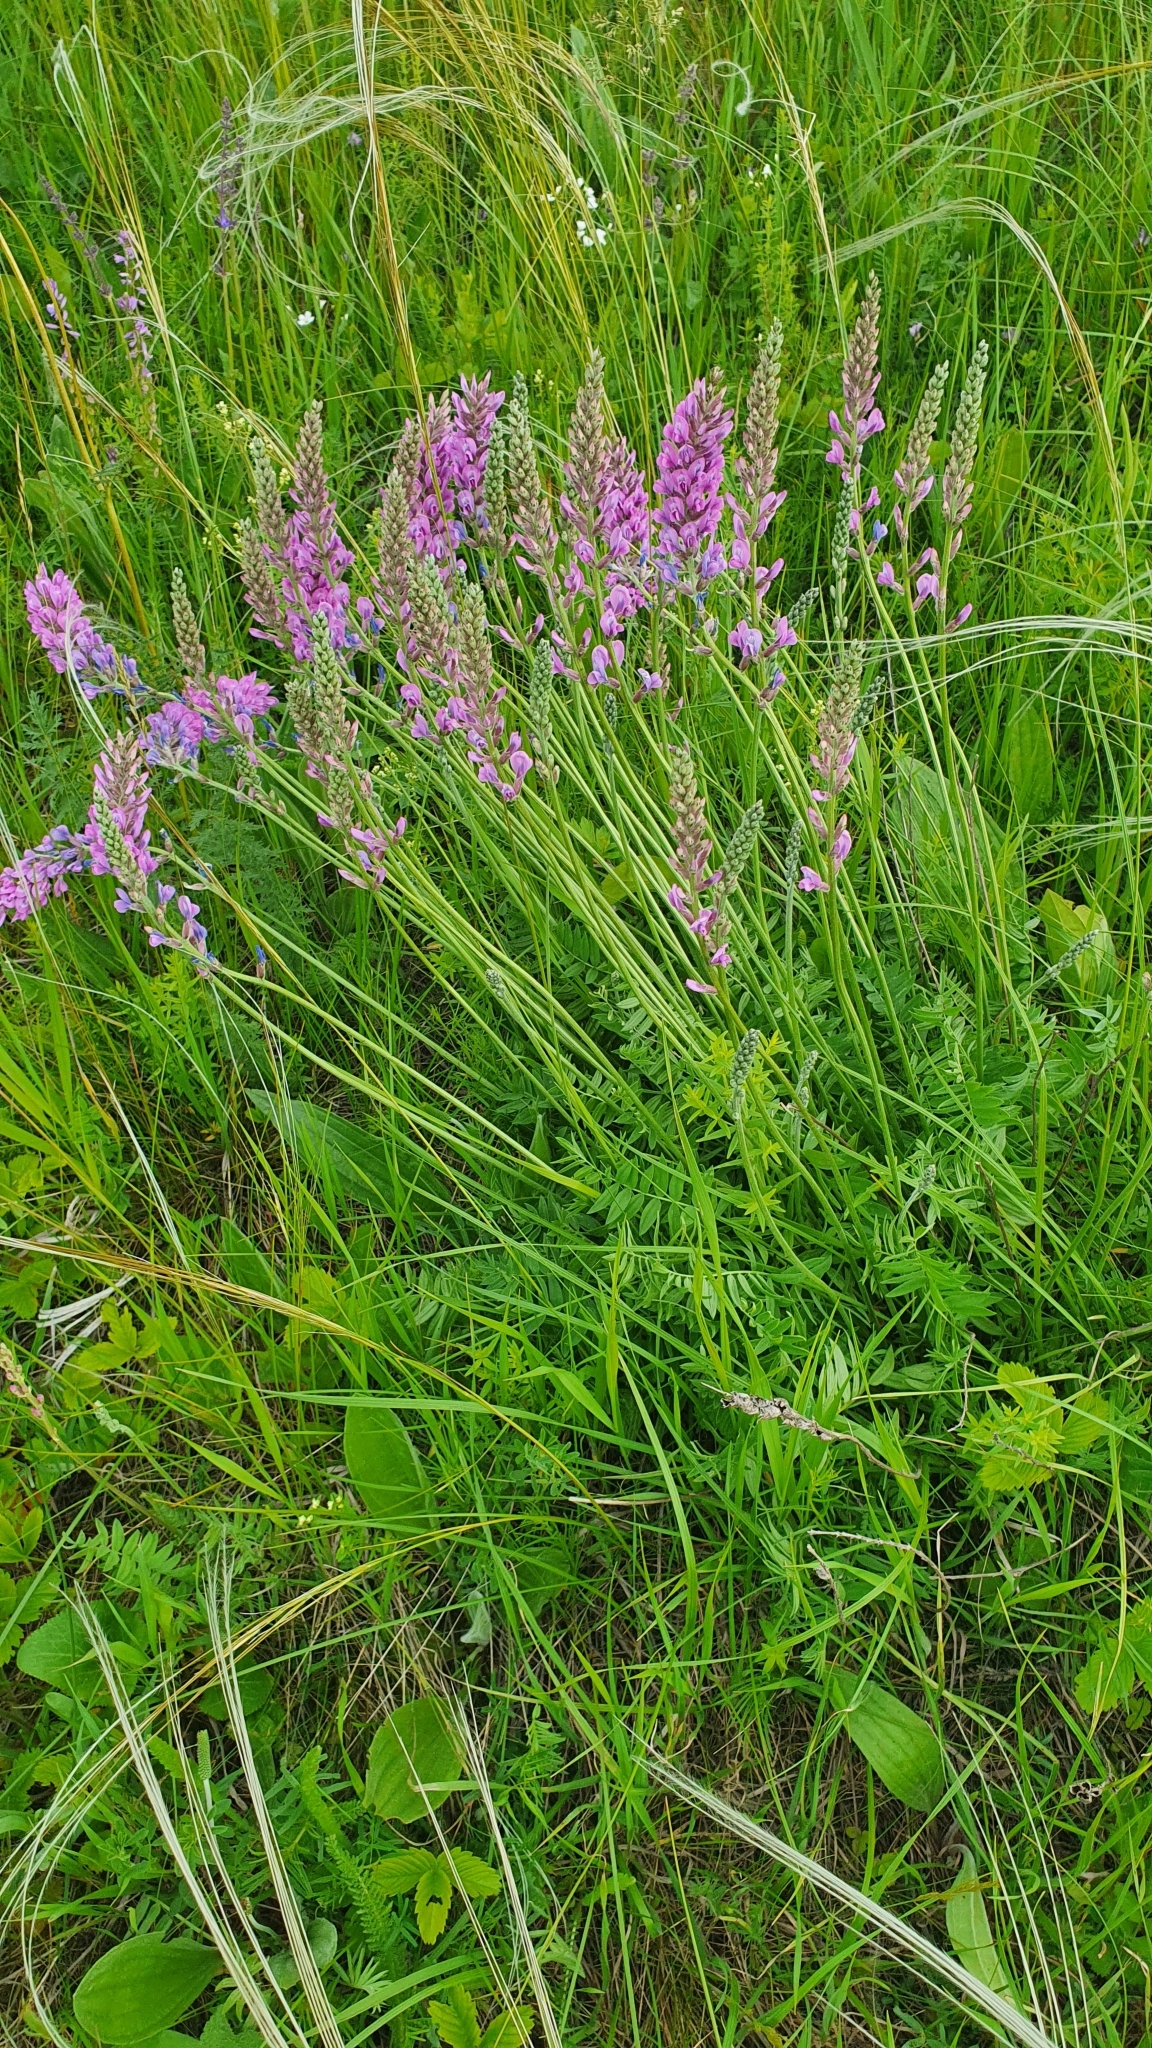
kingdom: Plantae
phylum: Tracheophyta
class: Magnoliopsida
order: Fabales
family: Fabaceae
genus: Oxytropis
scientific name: Oxytropis knjazevii
